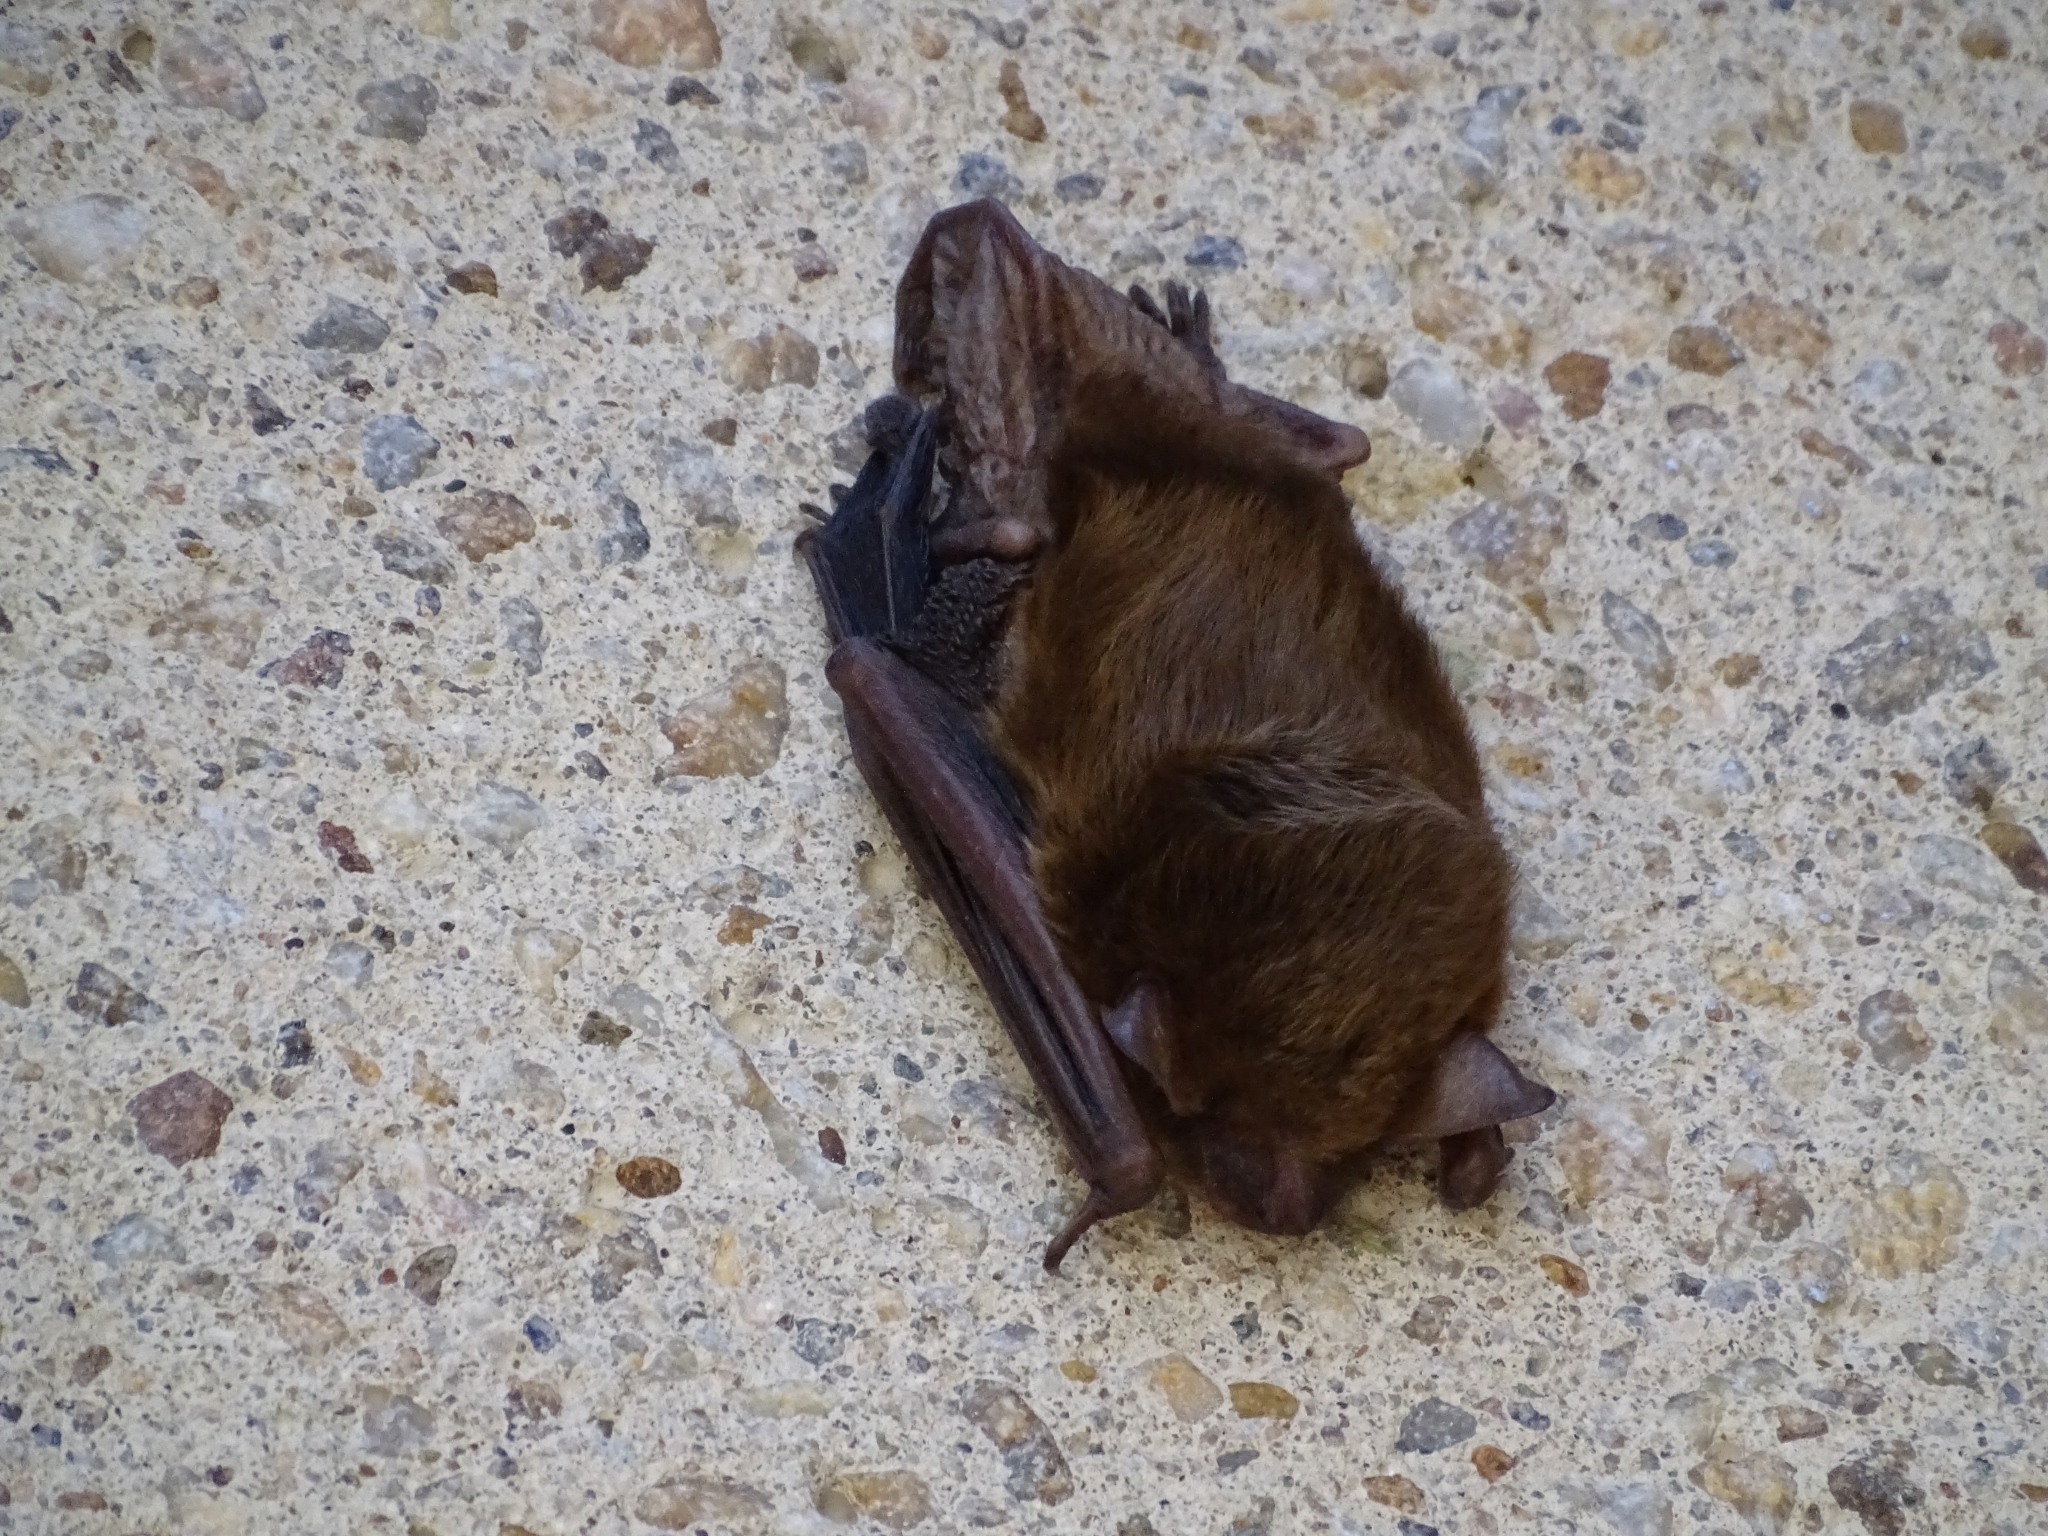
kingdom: Animalia
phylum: Chordata
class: Mammalia
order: Chiroptera
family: Vespertilionidae
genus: Eptesicus
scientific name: Eptesicus fuscus
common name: Big brown bat
